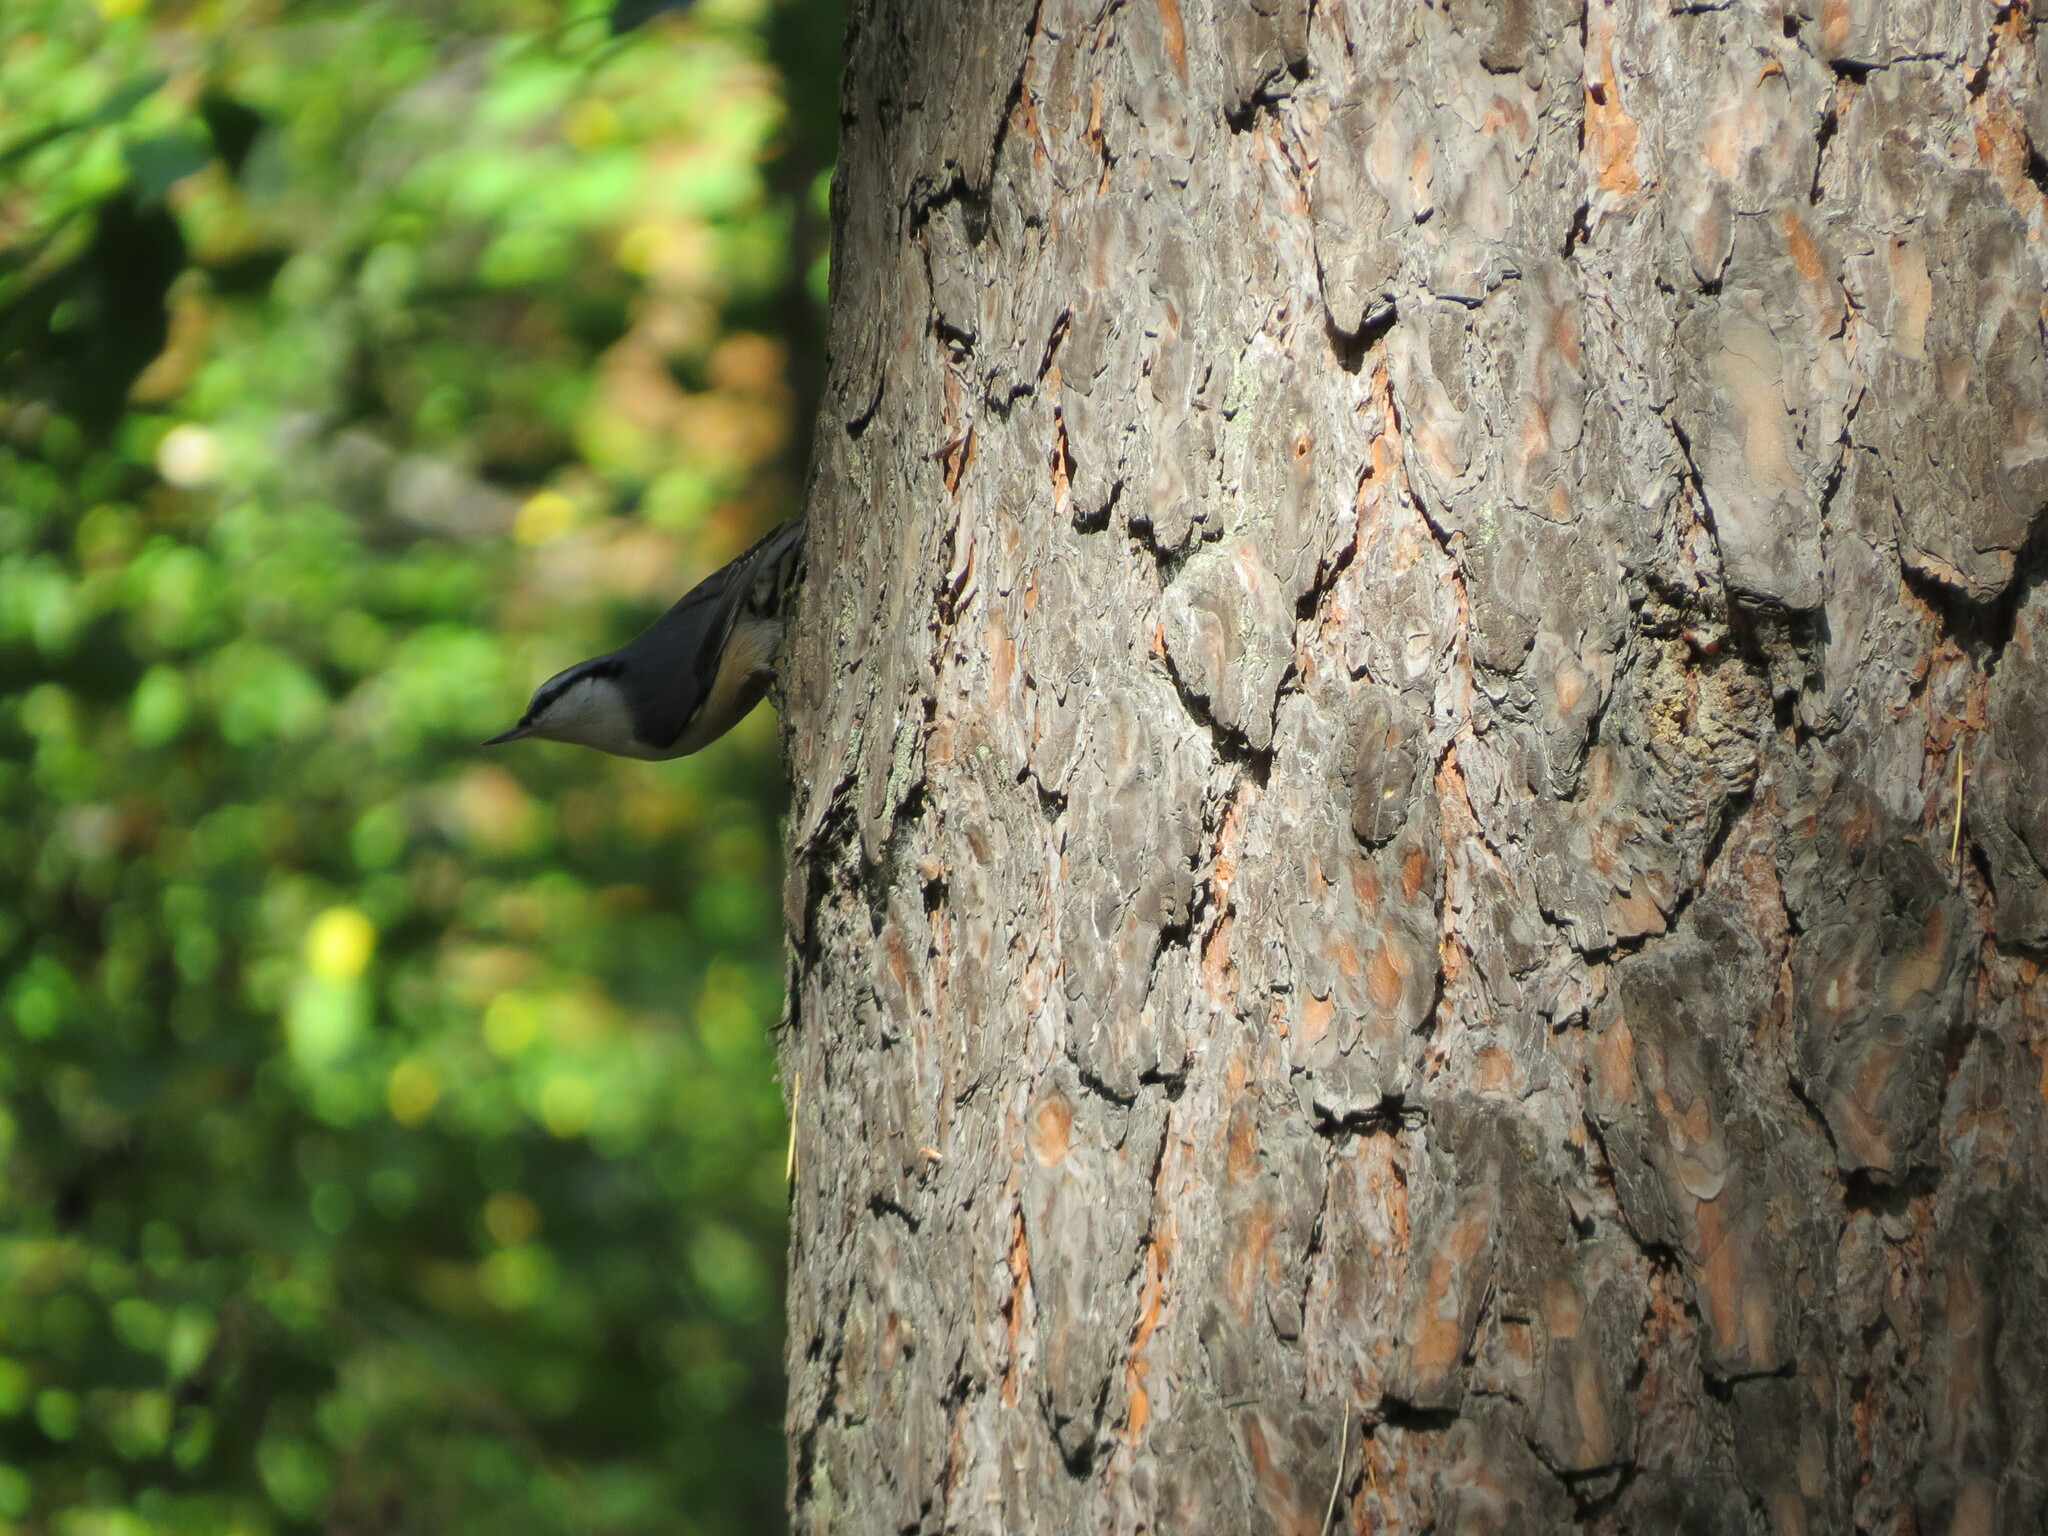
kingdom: Animalia
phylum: Chordata
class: Aves
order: Passeriformes
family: Sittidae
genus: Sitta
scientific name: Sitta europaea
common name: Eurasian nuthatch
